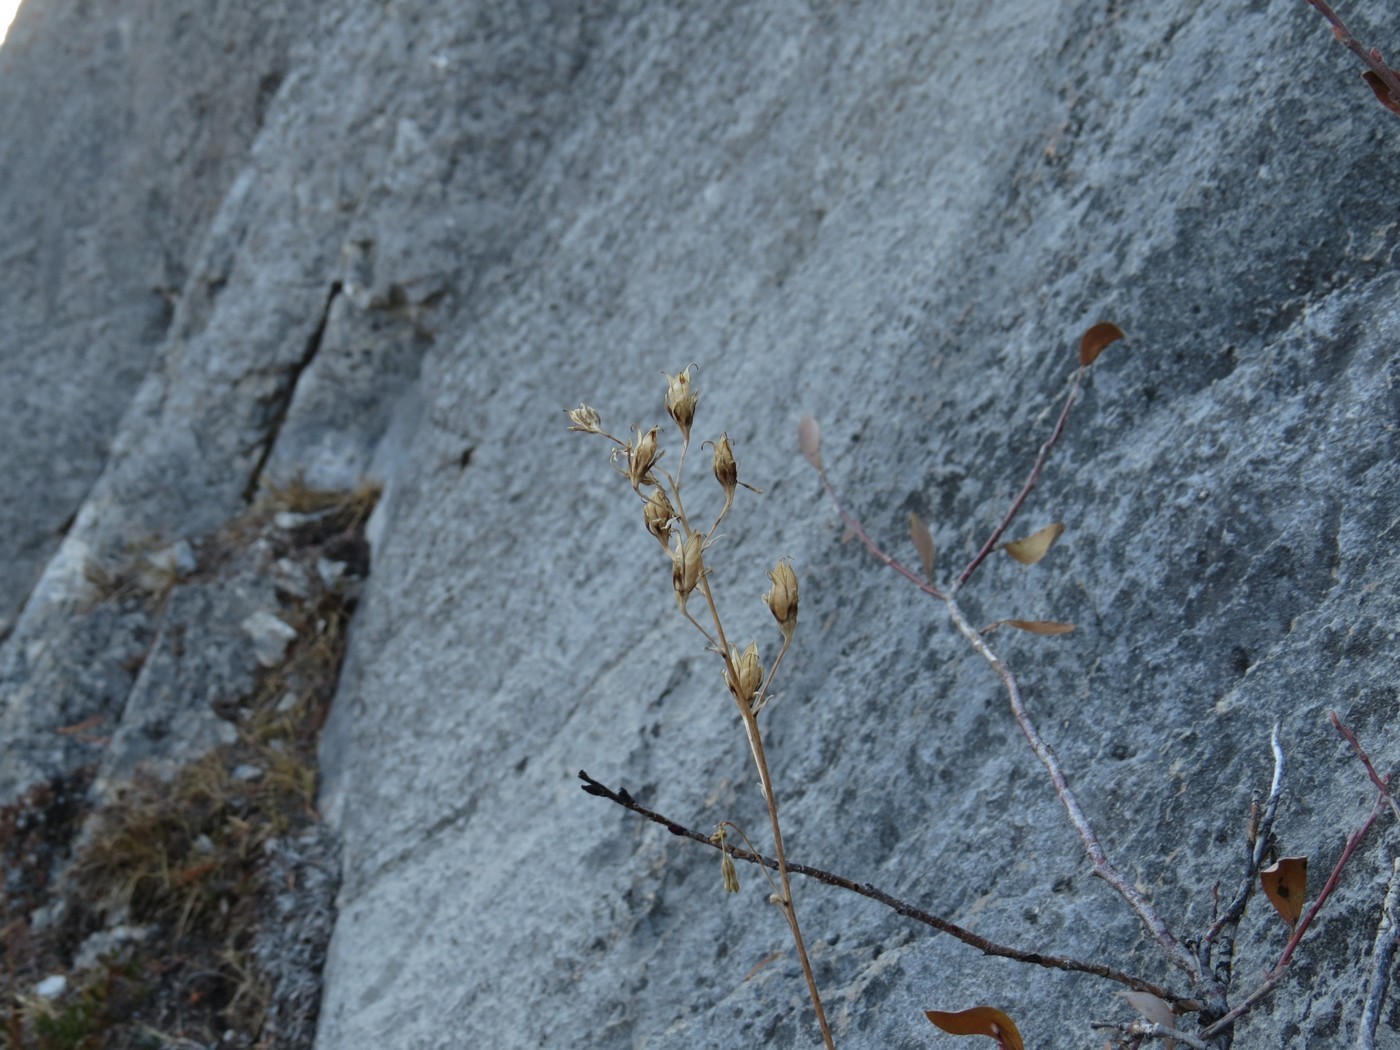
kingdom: Plantae
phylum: Tracheophyta
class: Liliopsida
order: Liliales
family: Melanthiaceae
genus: Anticlea
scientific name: Anticlea occidentalis
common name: Bronze-bells
